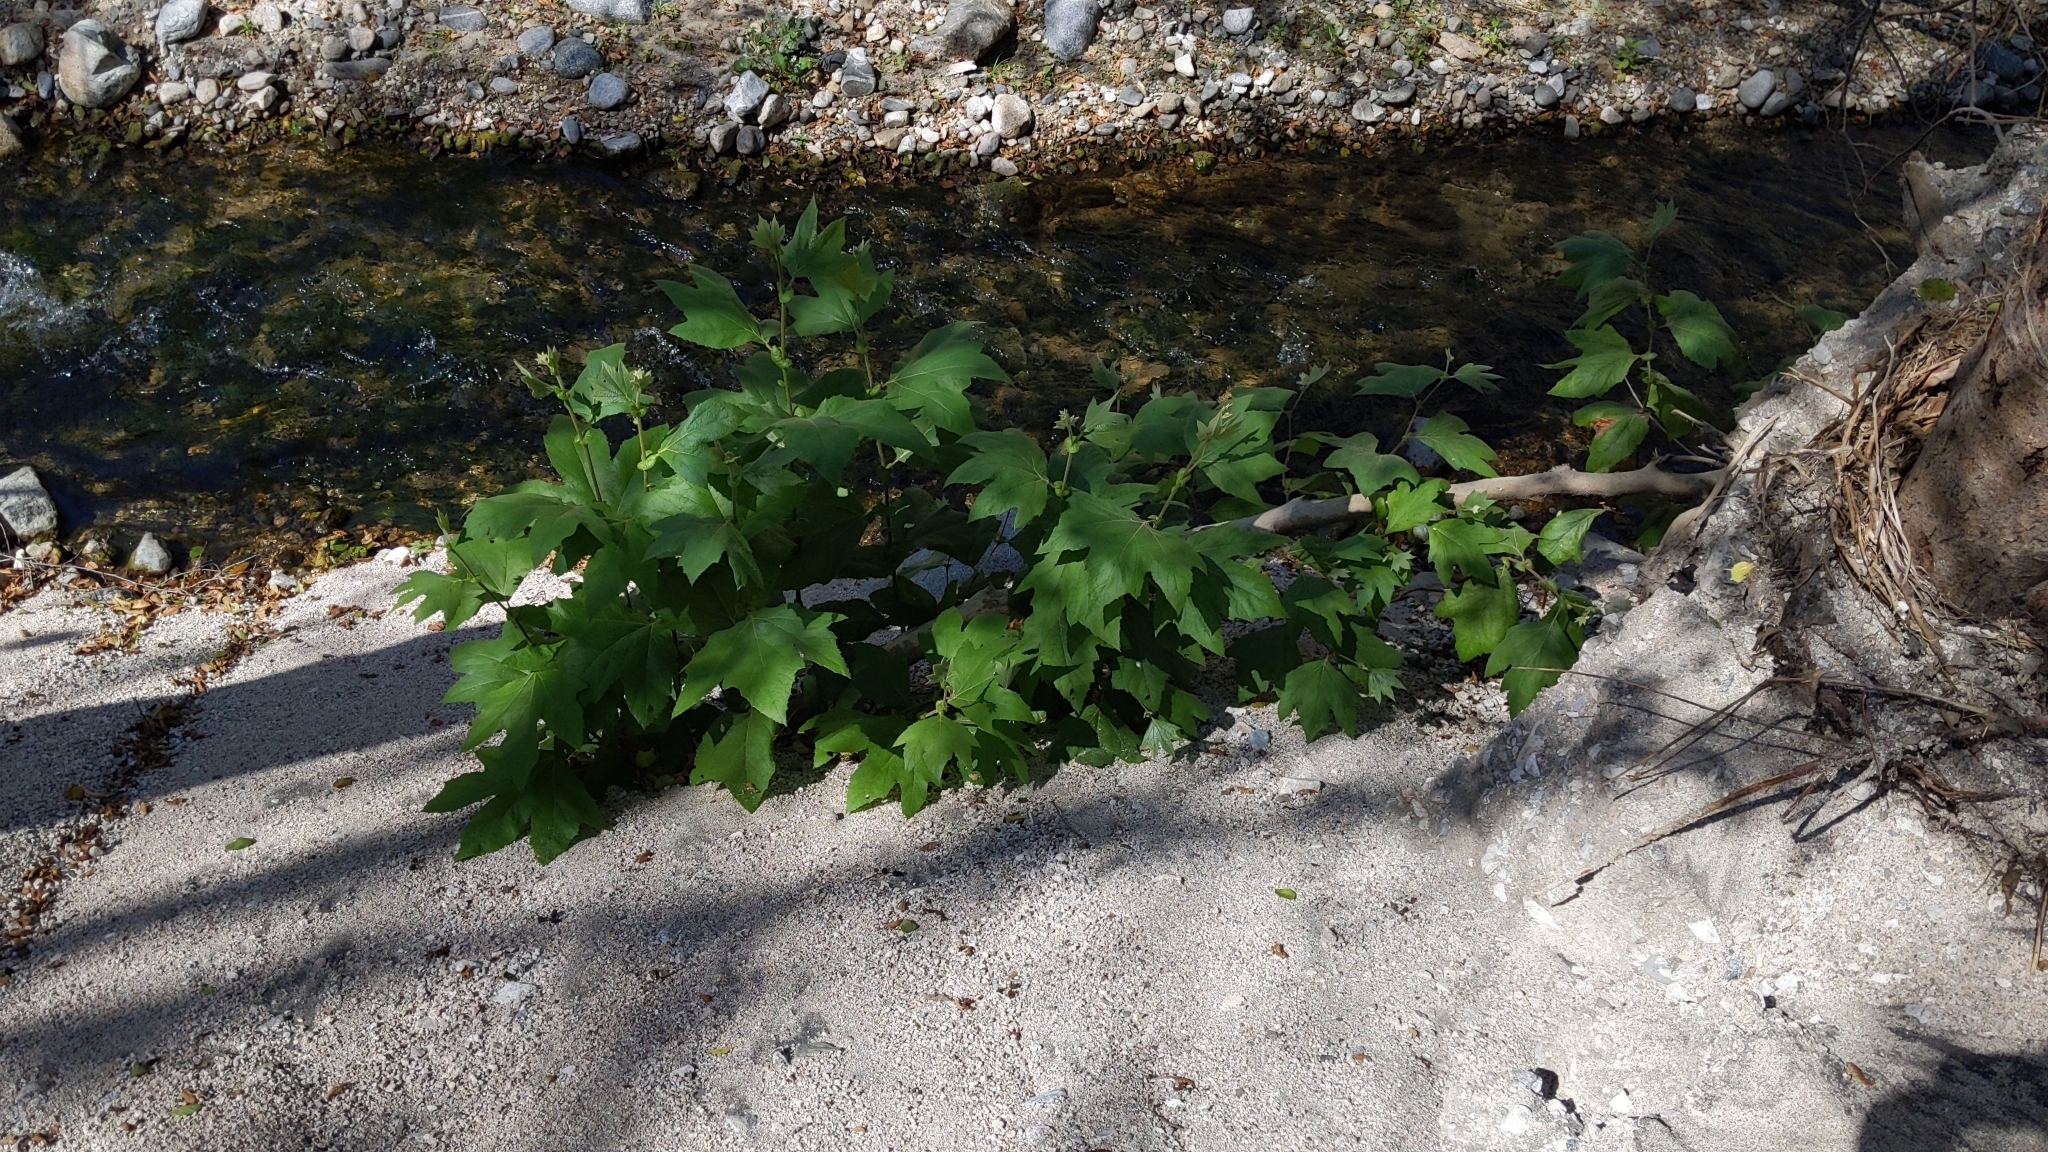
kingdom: Plantae
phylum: Tracheophyta
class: Magnoliopsida
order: Proteales
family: Platanaceae
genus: Platanus
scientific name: Platanus racemosa
